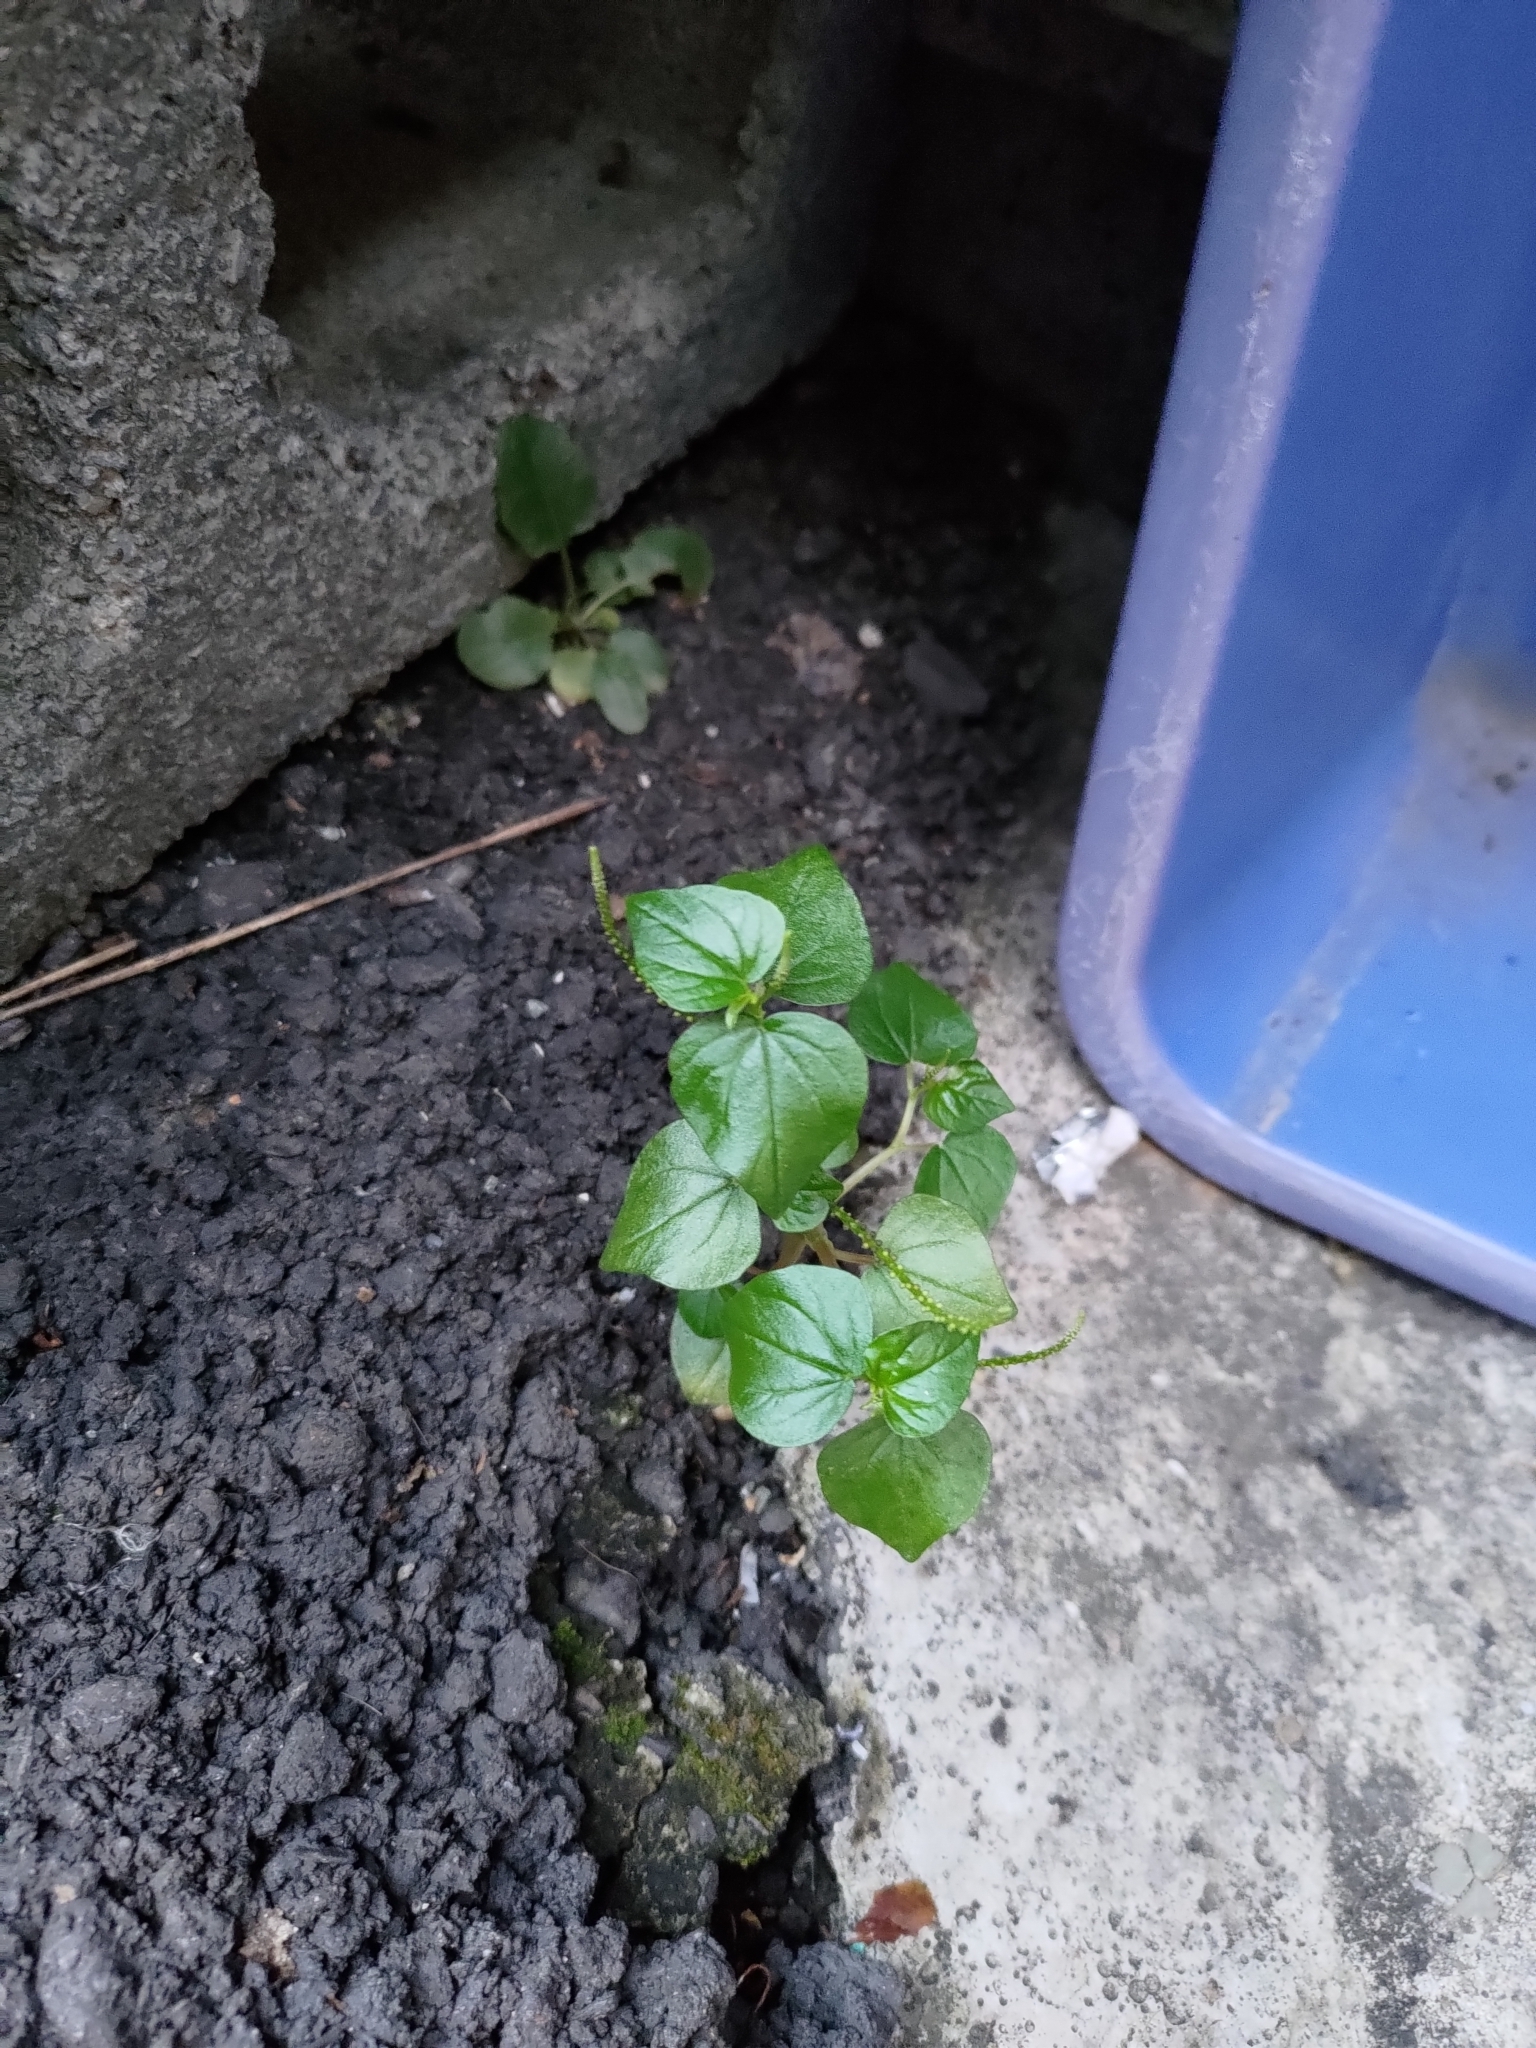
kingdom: Plantae
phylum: Tracheophyta
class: Magnoliopsida
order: Piperales
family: Piperaceae
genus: Peperomia
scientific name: Peperomia pellucida
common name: Man to man
